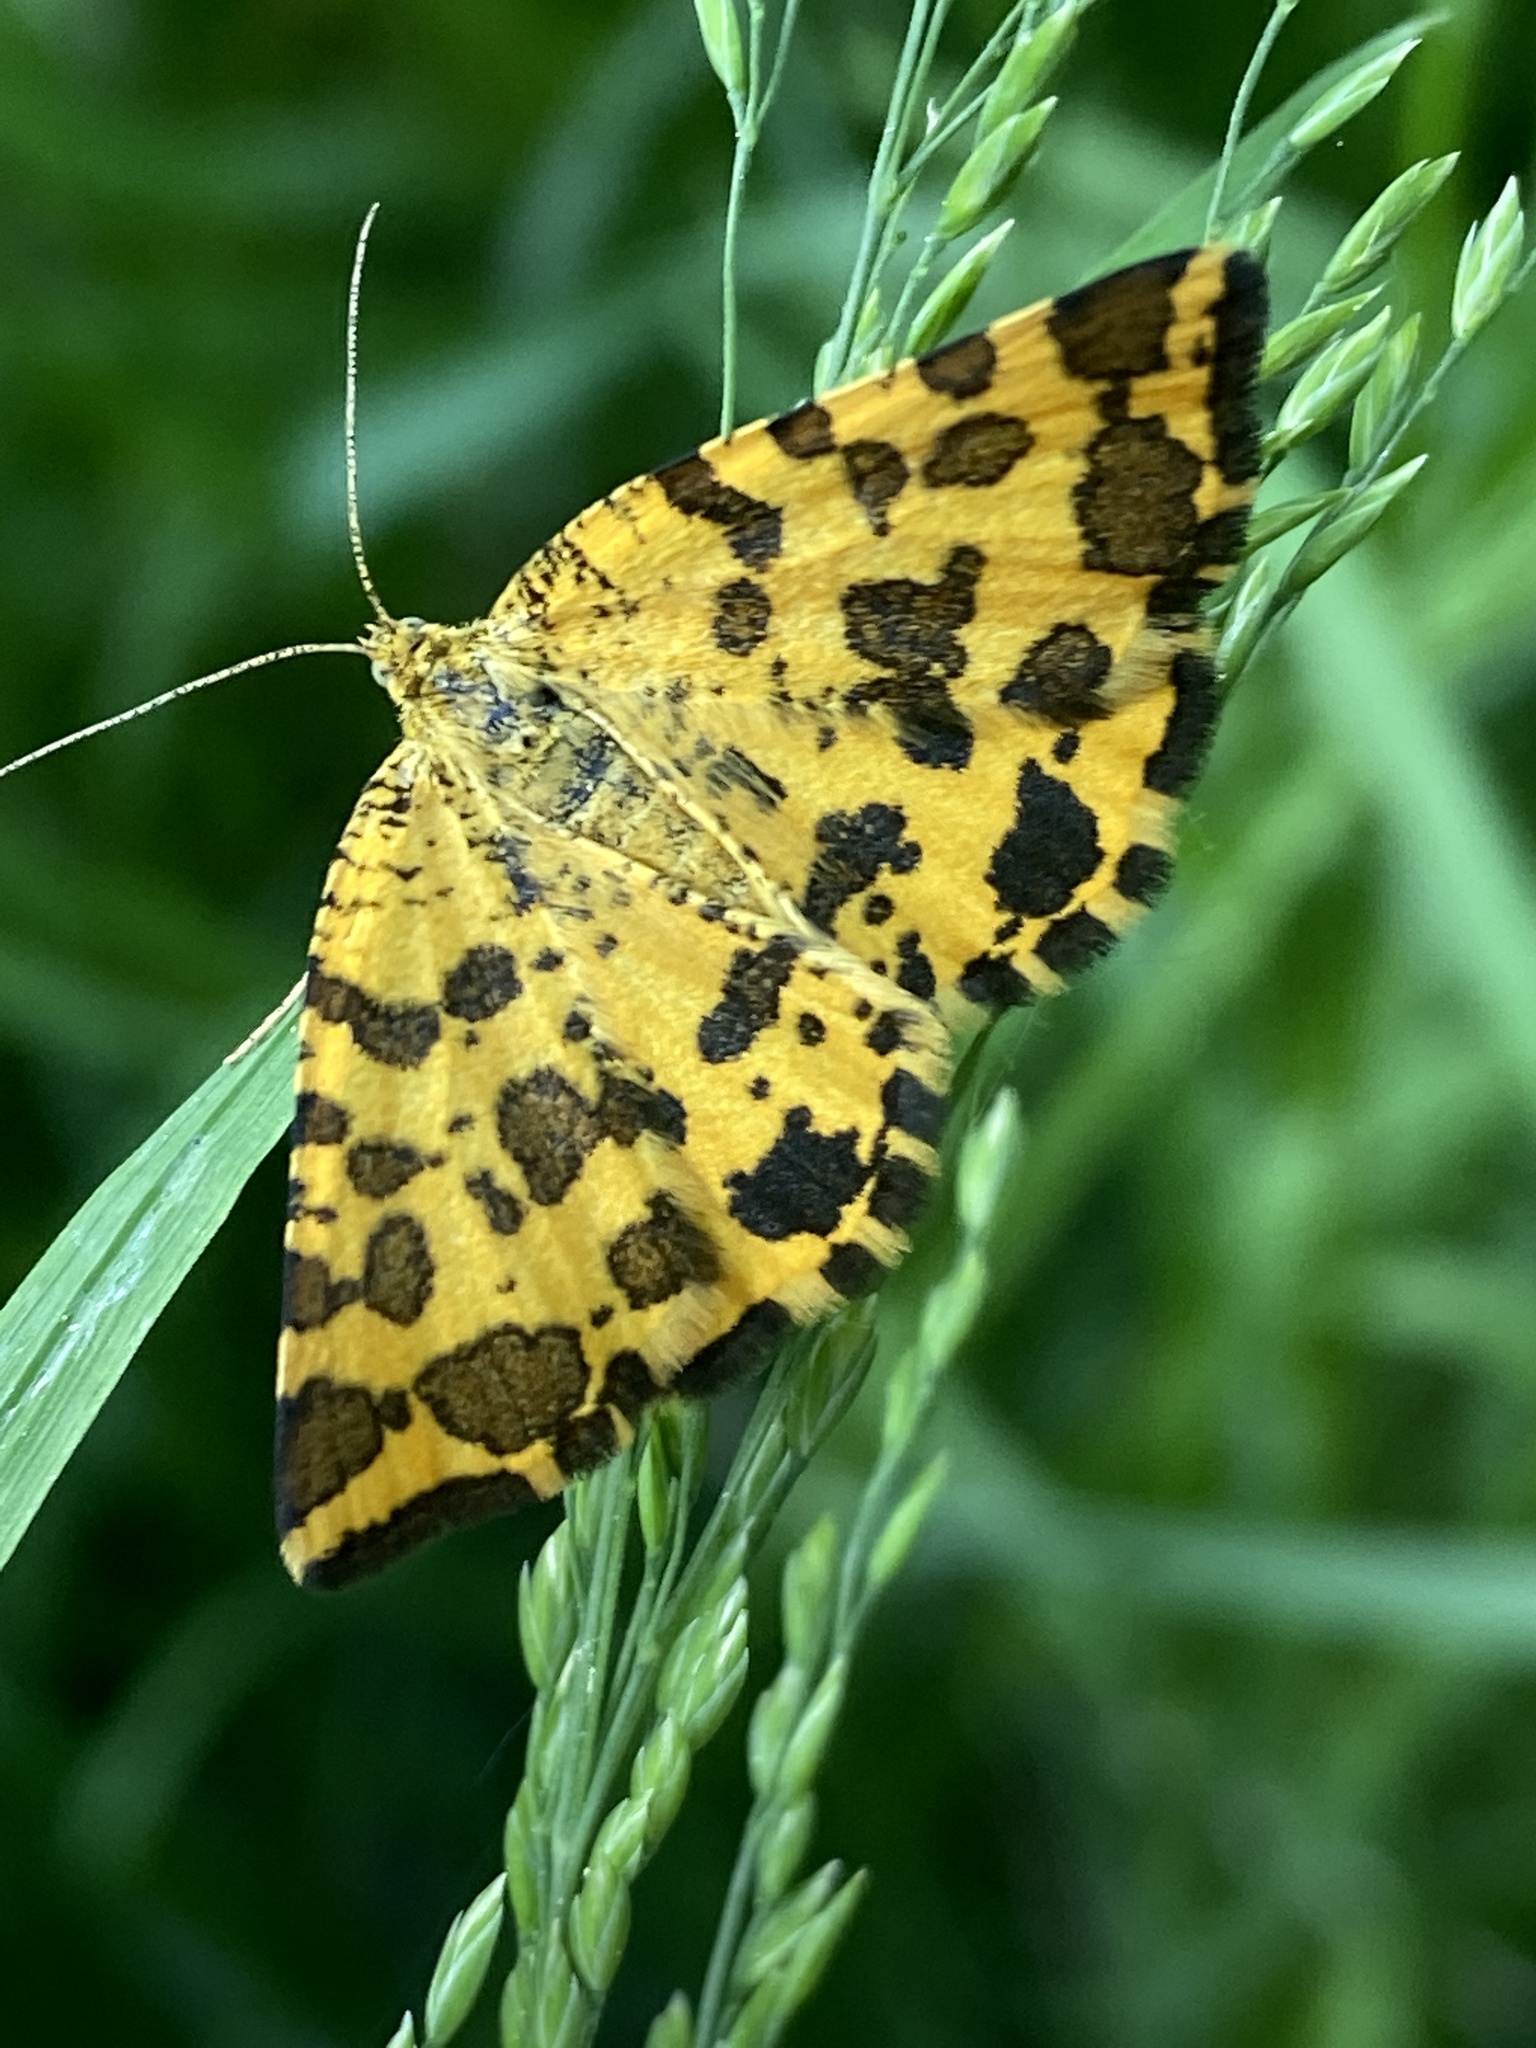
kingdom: Animalia
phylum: Arthropoda
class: Insecta
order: Lepidoptera
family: Geometridae
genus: Pseudopanthera
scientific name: Pseudopanthera macularia
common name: Speckled yellow
